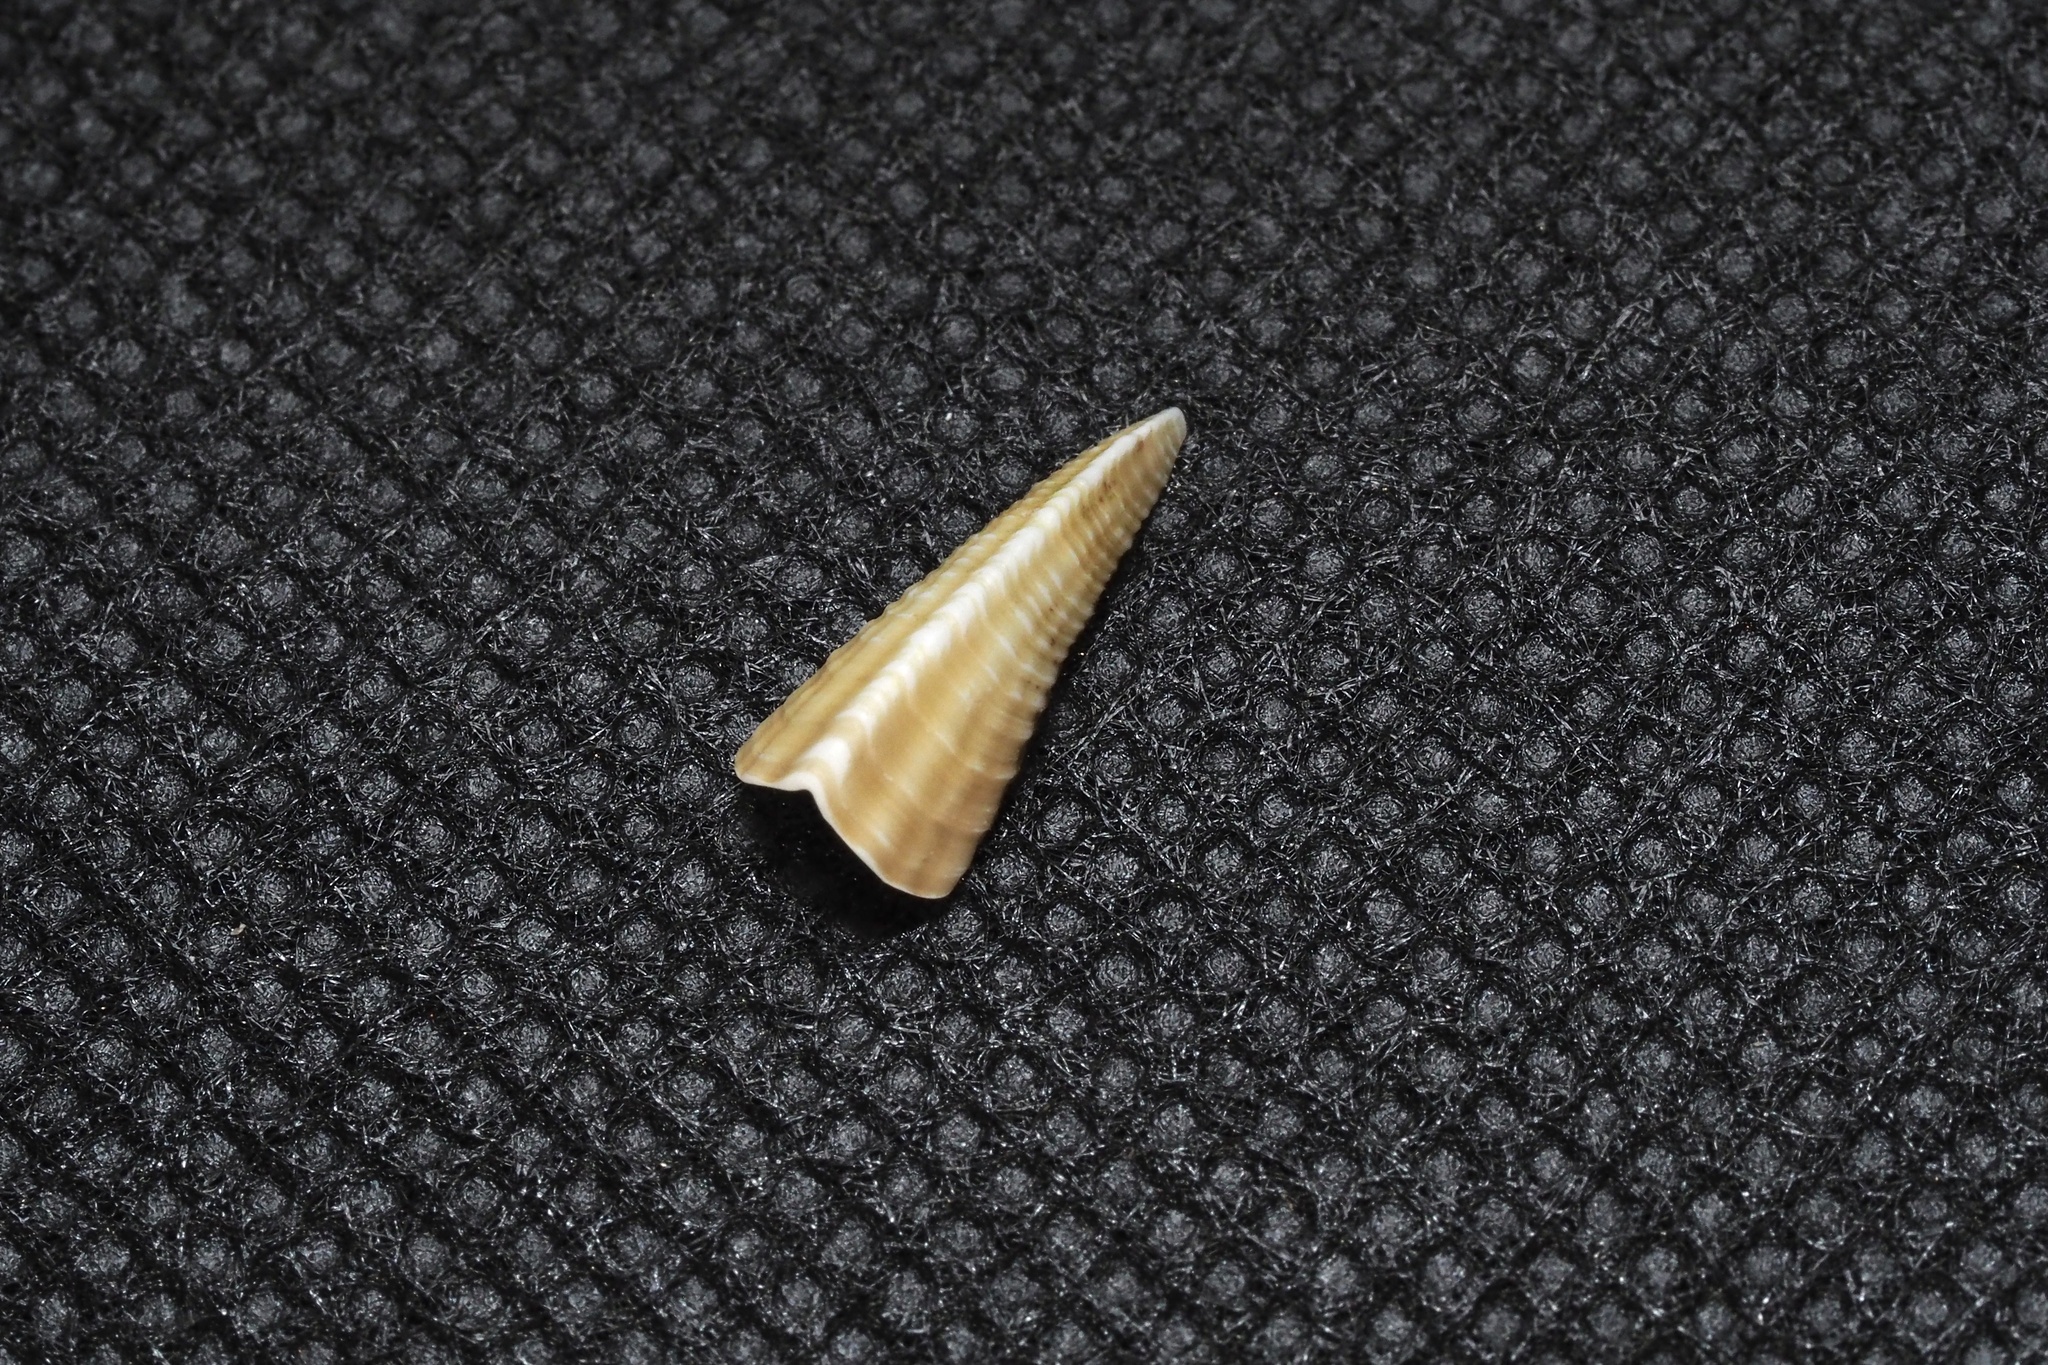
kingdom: Animalia
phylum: Arthropoda
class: Maxillopoda
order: Pedunculata
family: Pollicipedidae
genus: Capitulum
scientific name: Capitulum mitella
